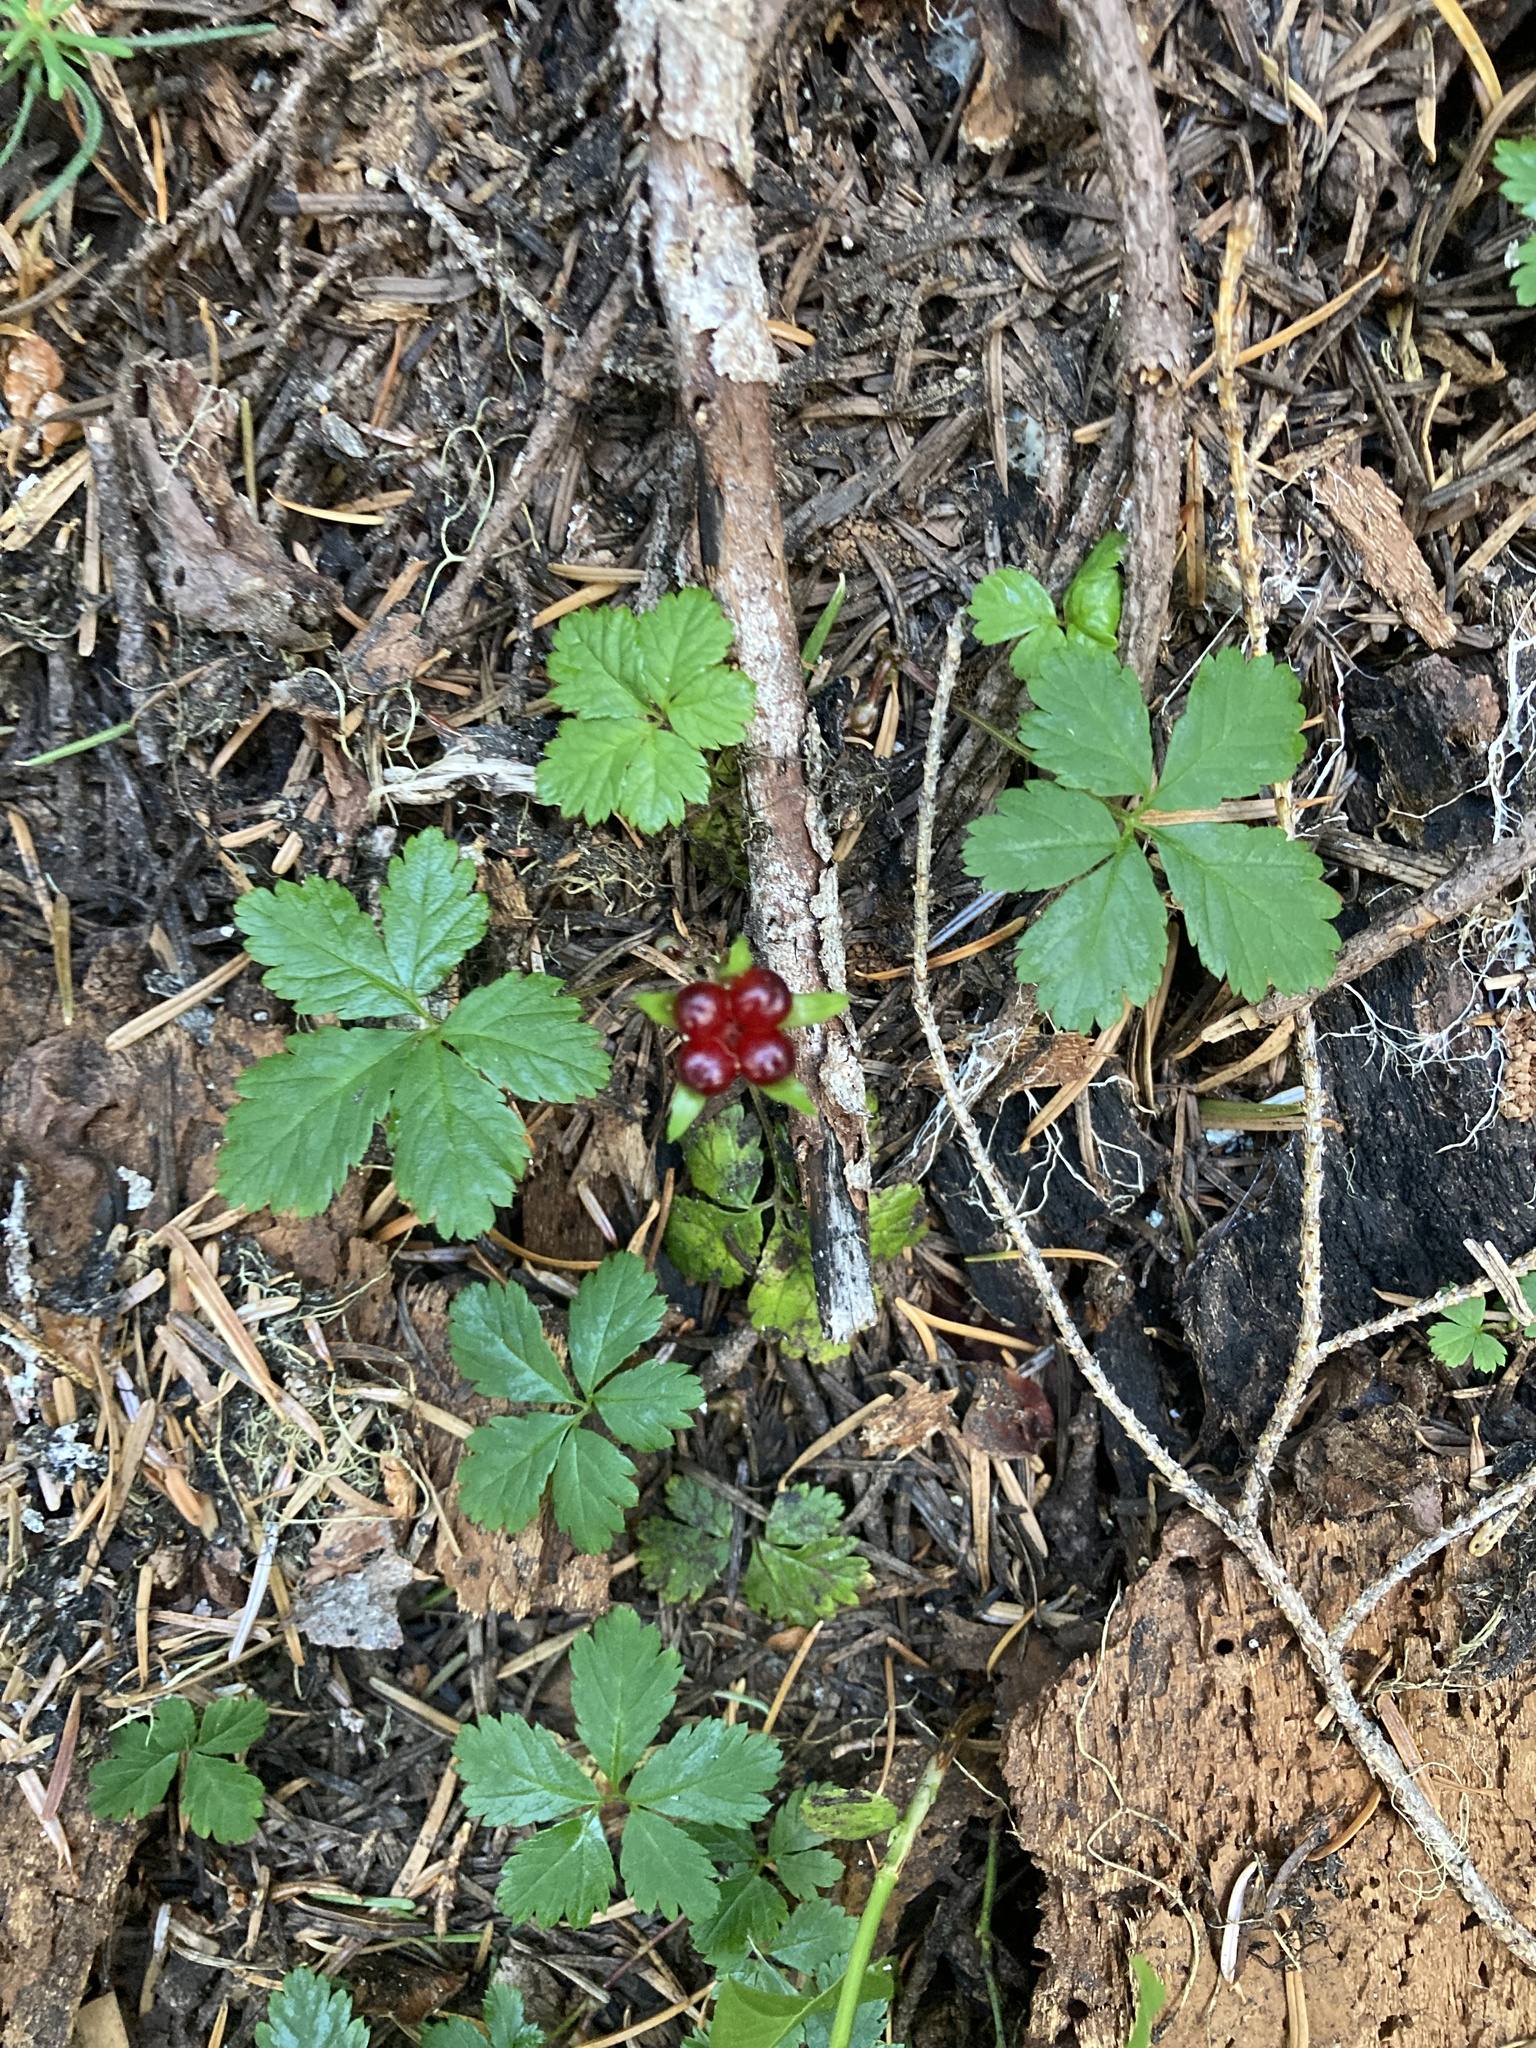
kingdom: Plantae
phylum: Tracheophyta
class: Magnoliopsida
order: Rosales
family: Rosaceae
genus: Rubus
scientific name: Rubus pedatus
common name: Creeping raspberry
